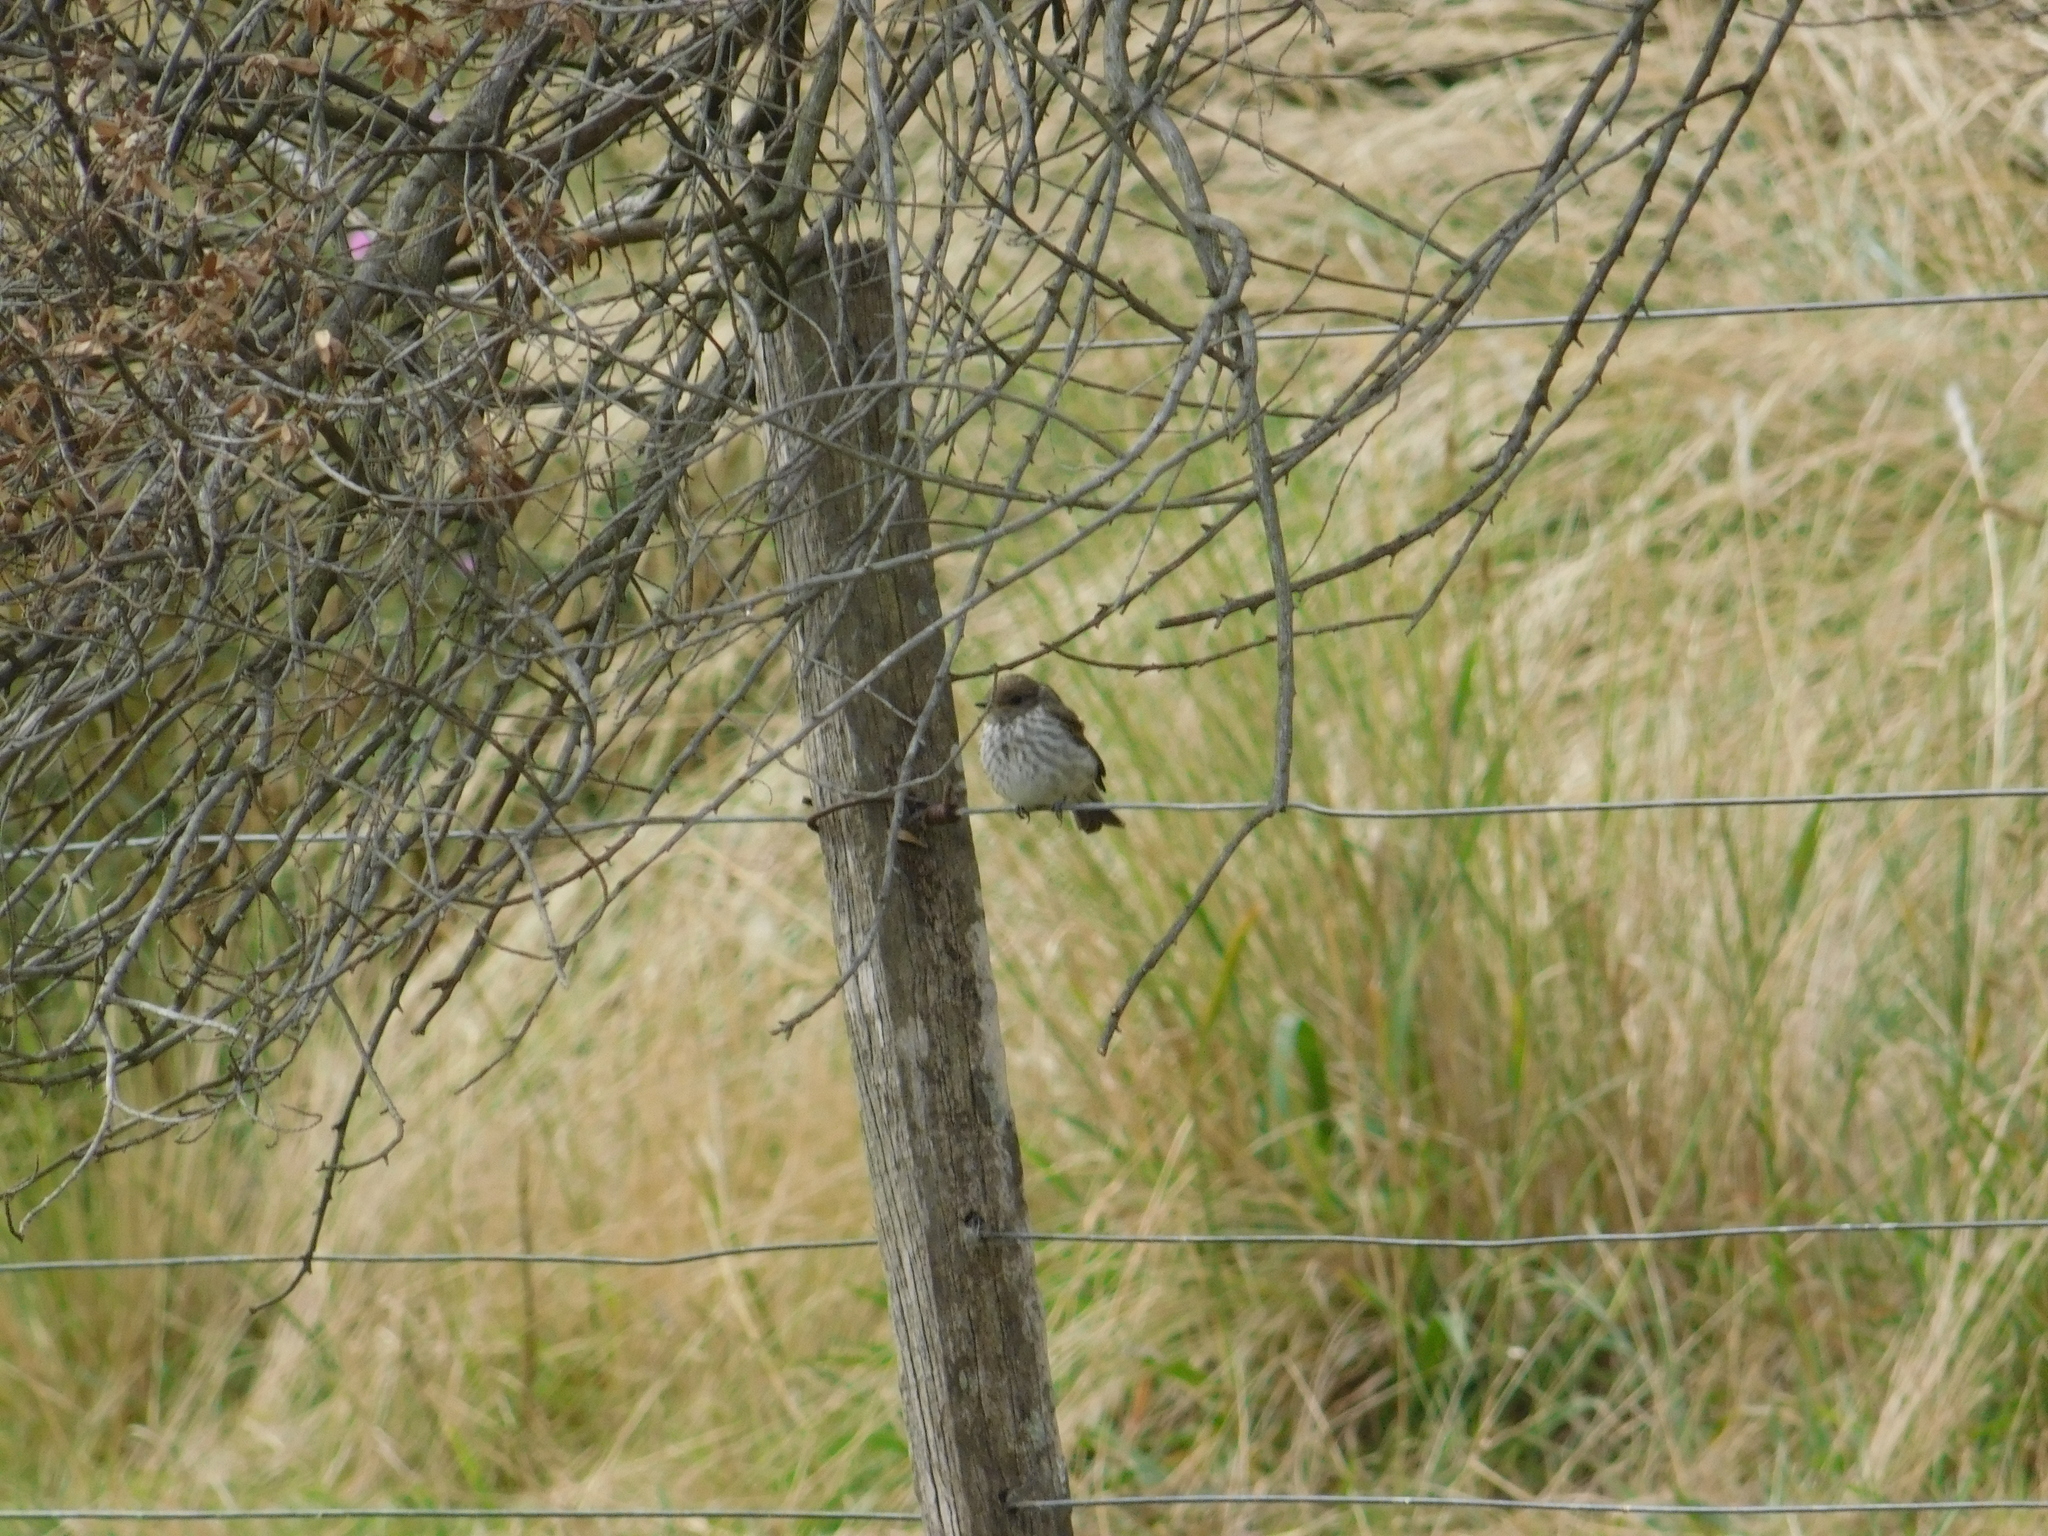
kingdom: Animalia
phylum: Chordata
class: Aves
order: Passeriformes
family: Tyrannidae
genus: Pyrocephalus
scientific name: Pyrocephalus rubinus
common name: Vermilion flycatcher
